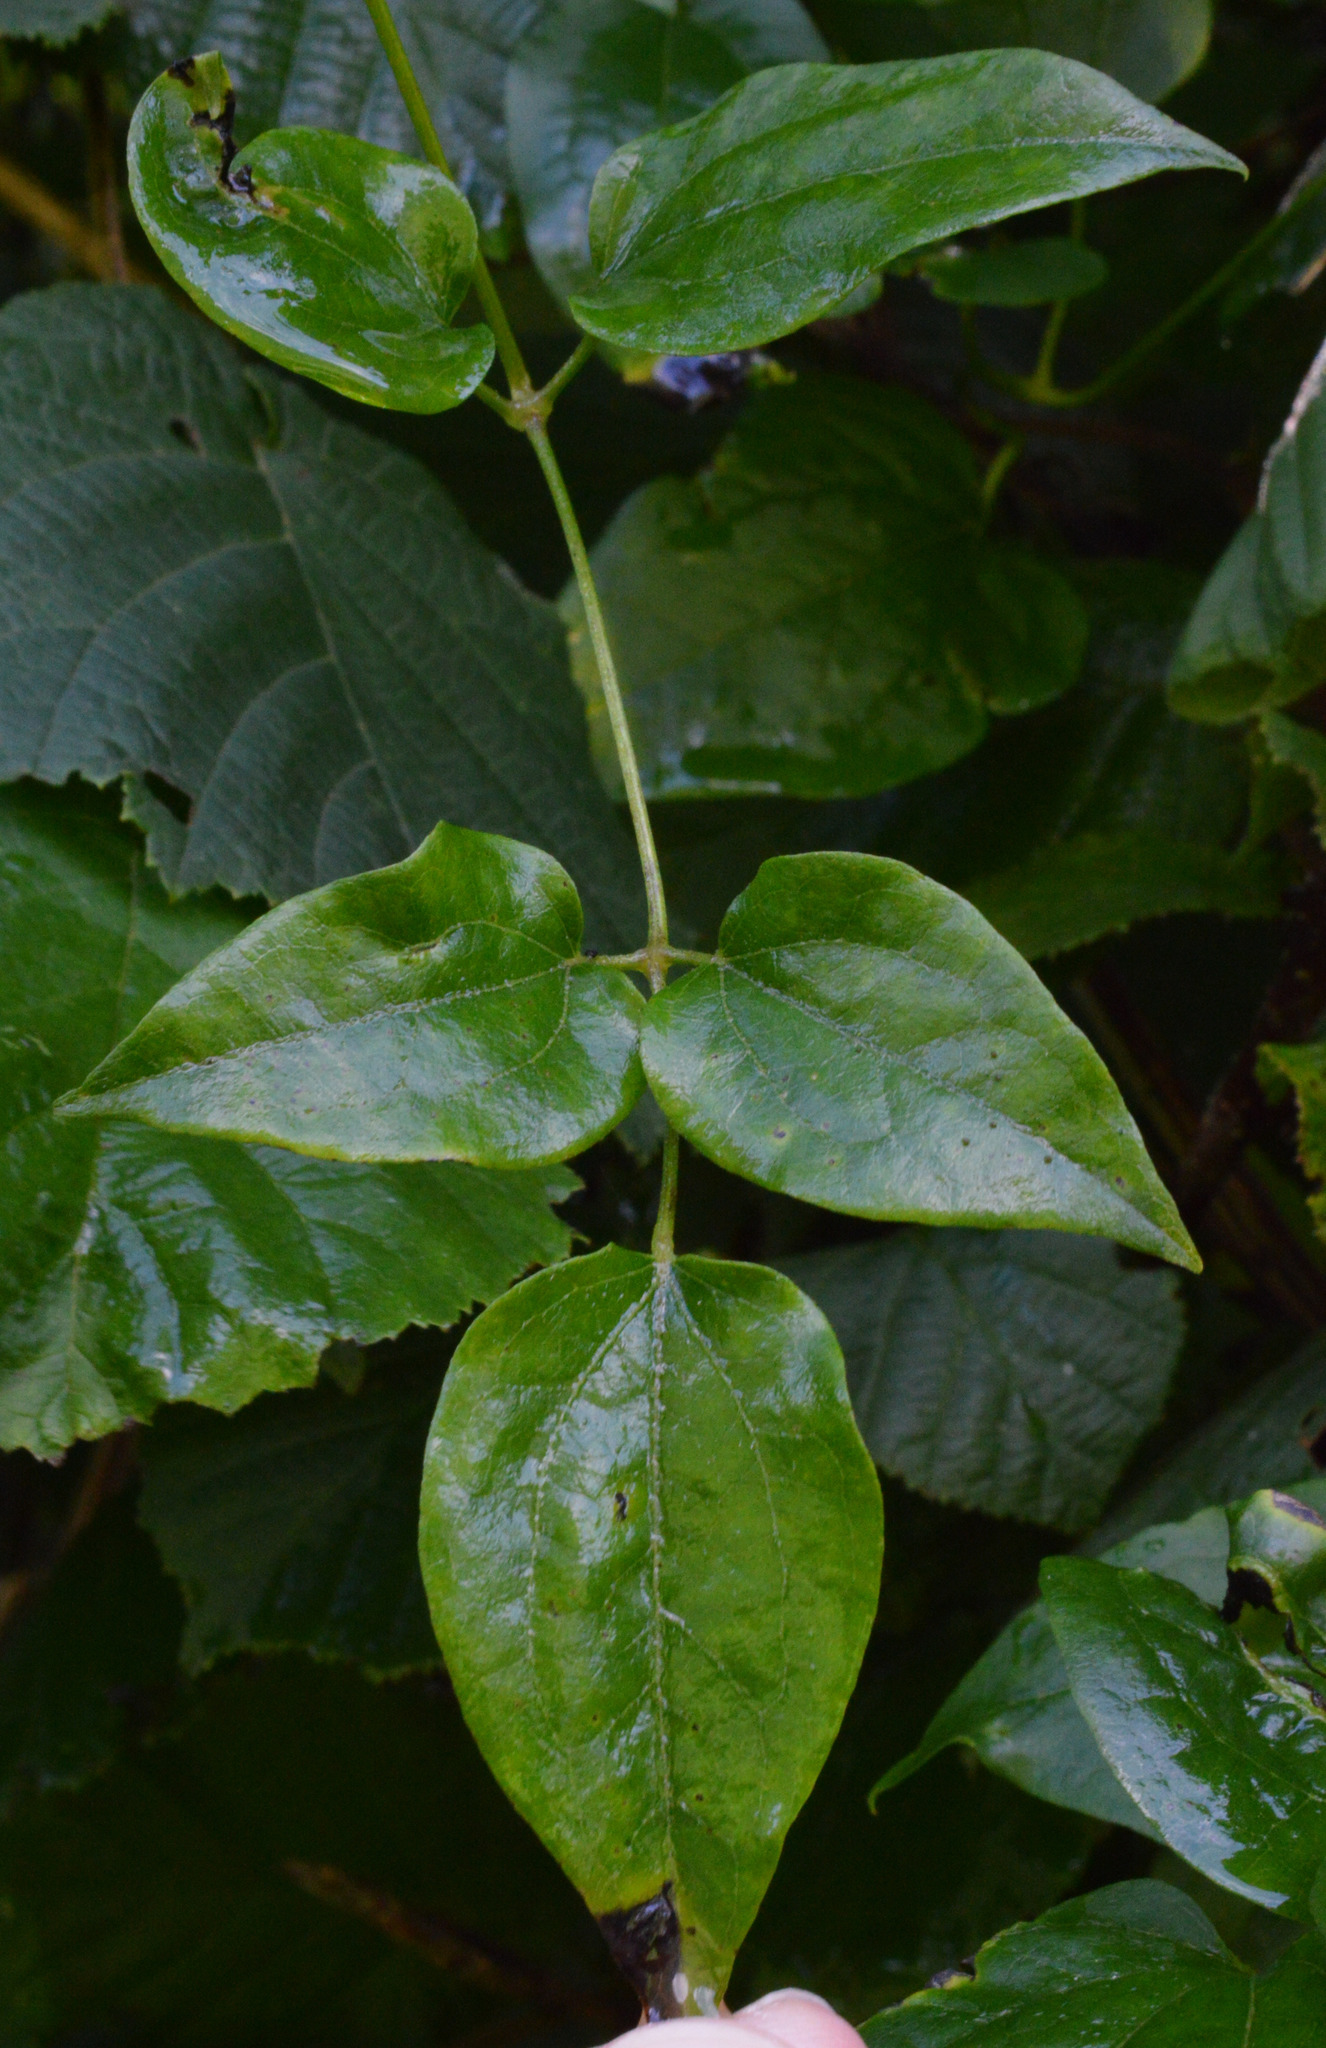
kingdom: Plantae
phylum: Tracheophyta
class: Magnoliopsida
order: Ranunculales
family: Ranunculaceae
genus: Clematis
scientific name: Clematis vitalba
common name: Evergreen clematis
